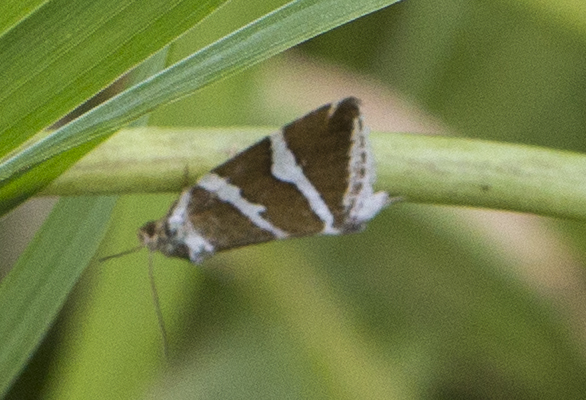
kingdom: Animalia
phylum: Arthropoda
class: Insecta
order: Lepidoptera
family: Noctuidae
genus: Deltote
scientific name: Deltote bankiana
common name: Silver barred
